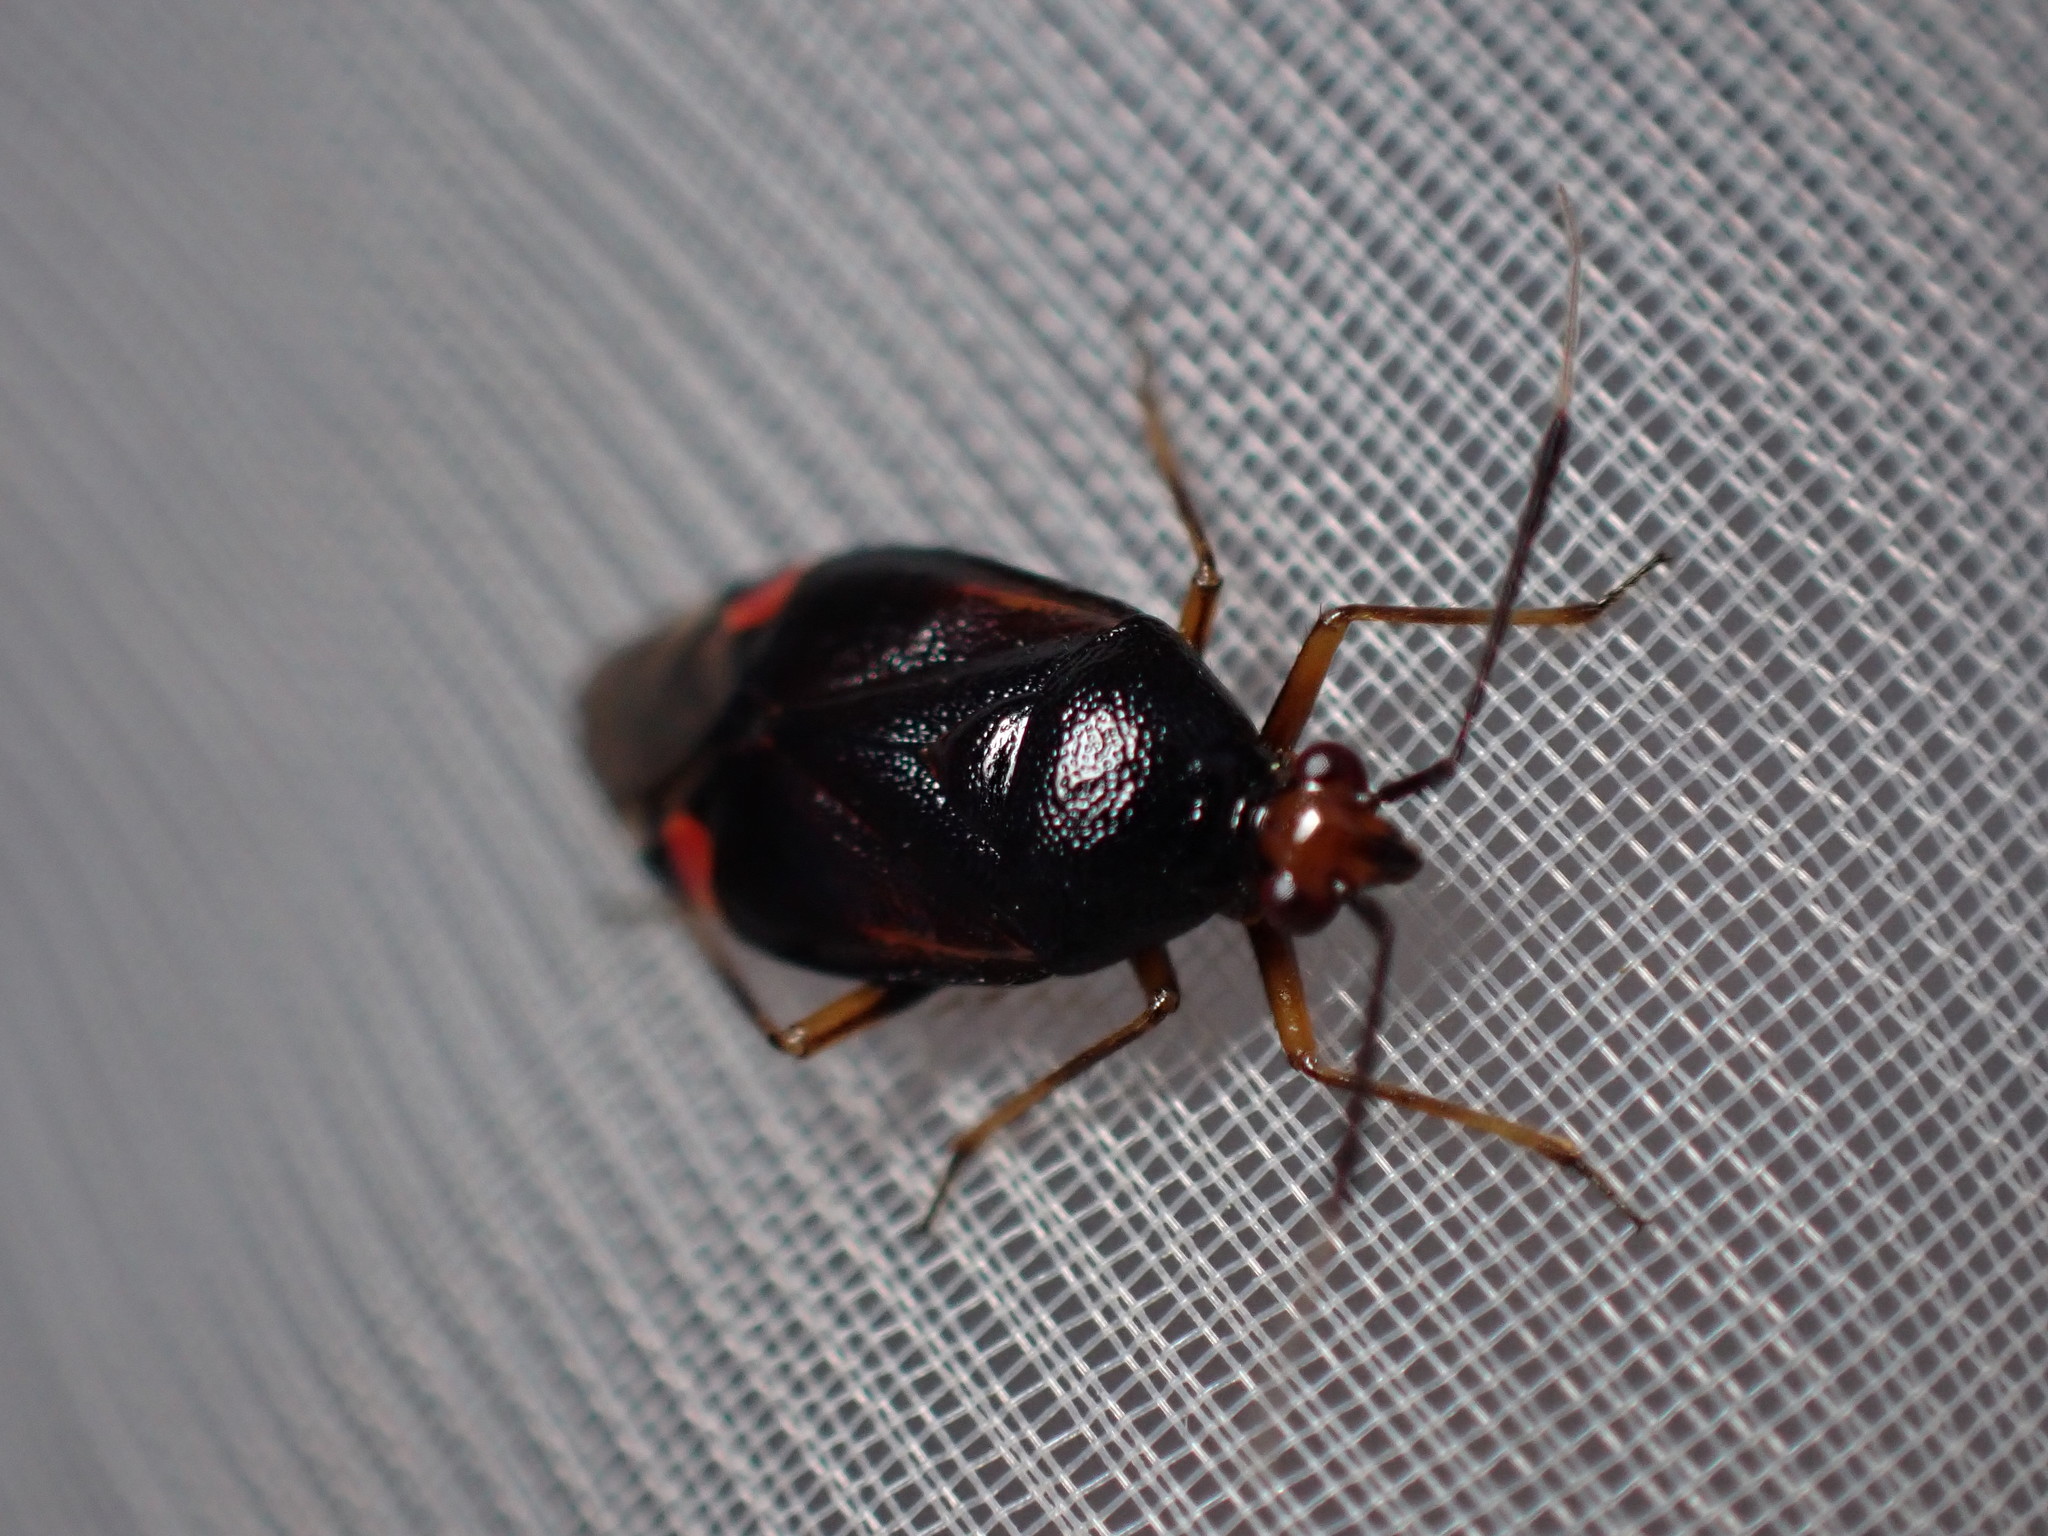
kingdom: Animalia
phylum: Arthropoda
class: Insecta
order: Hemiptera
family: Miridae
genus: Deraeocoris
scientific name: Deraeocoris ruber
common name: Plant bug
